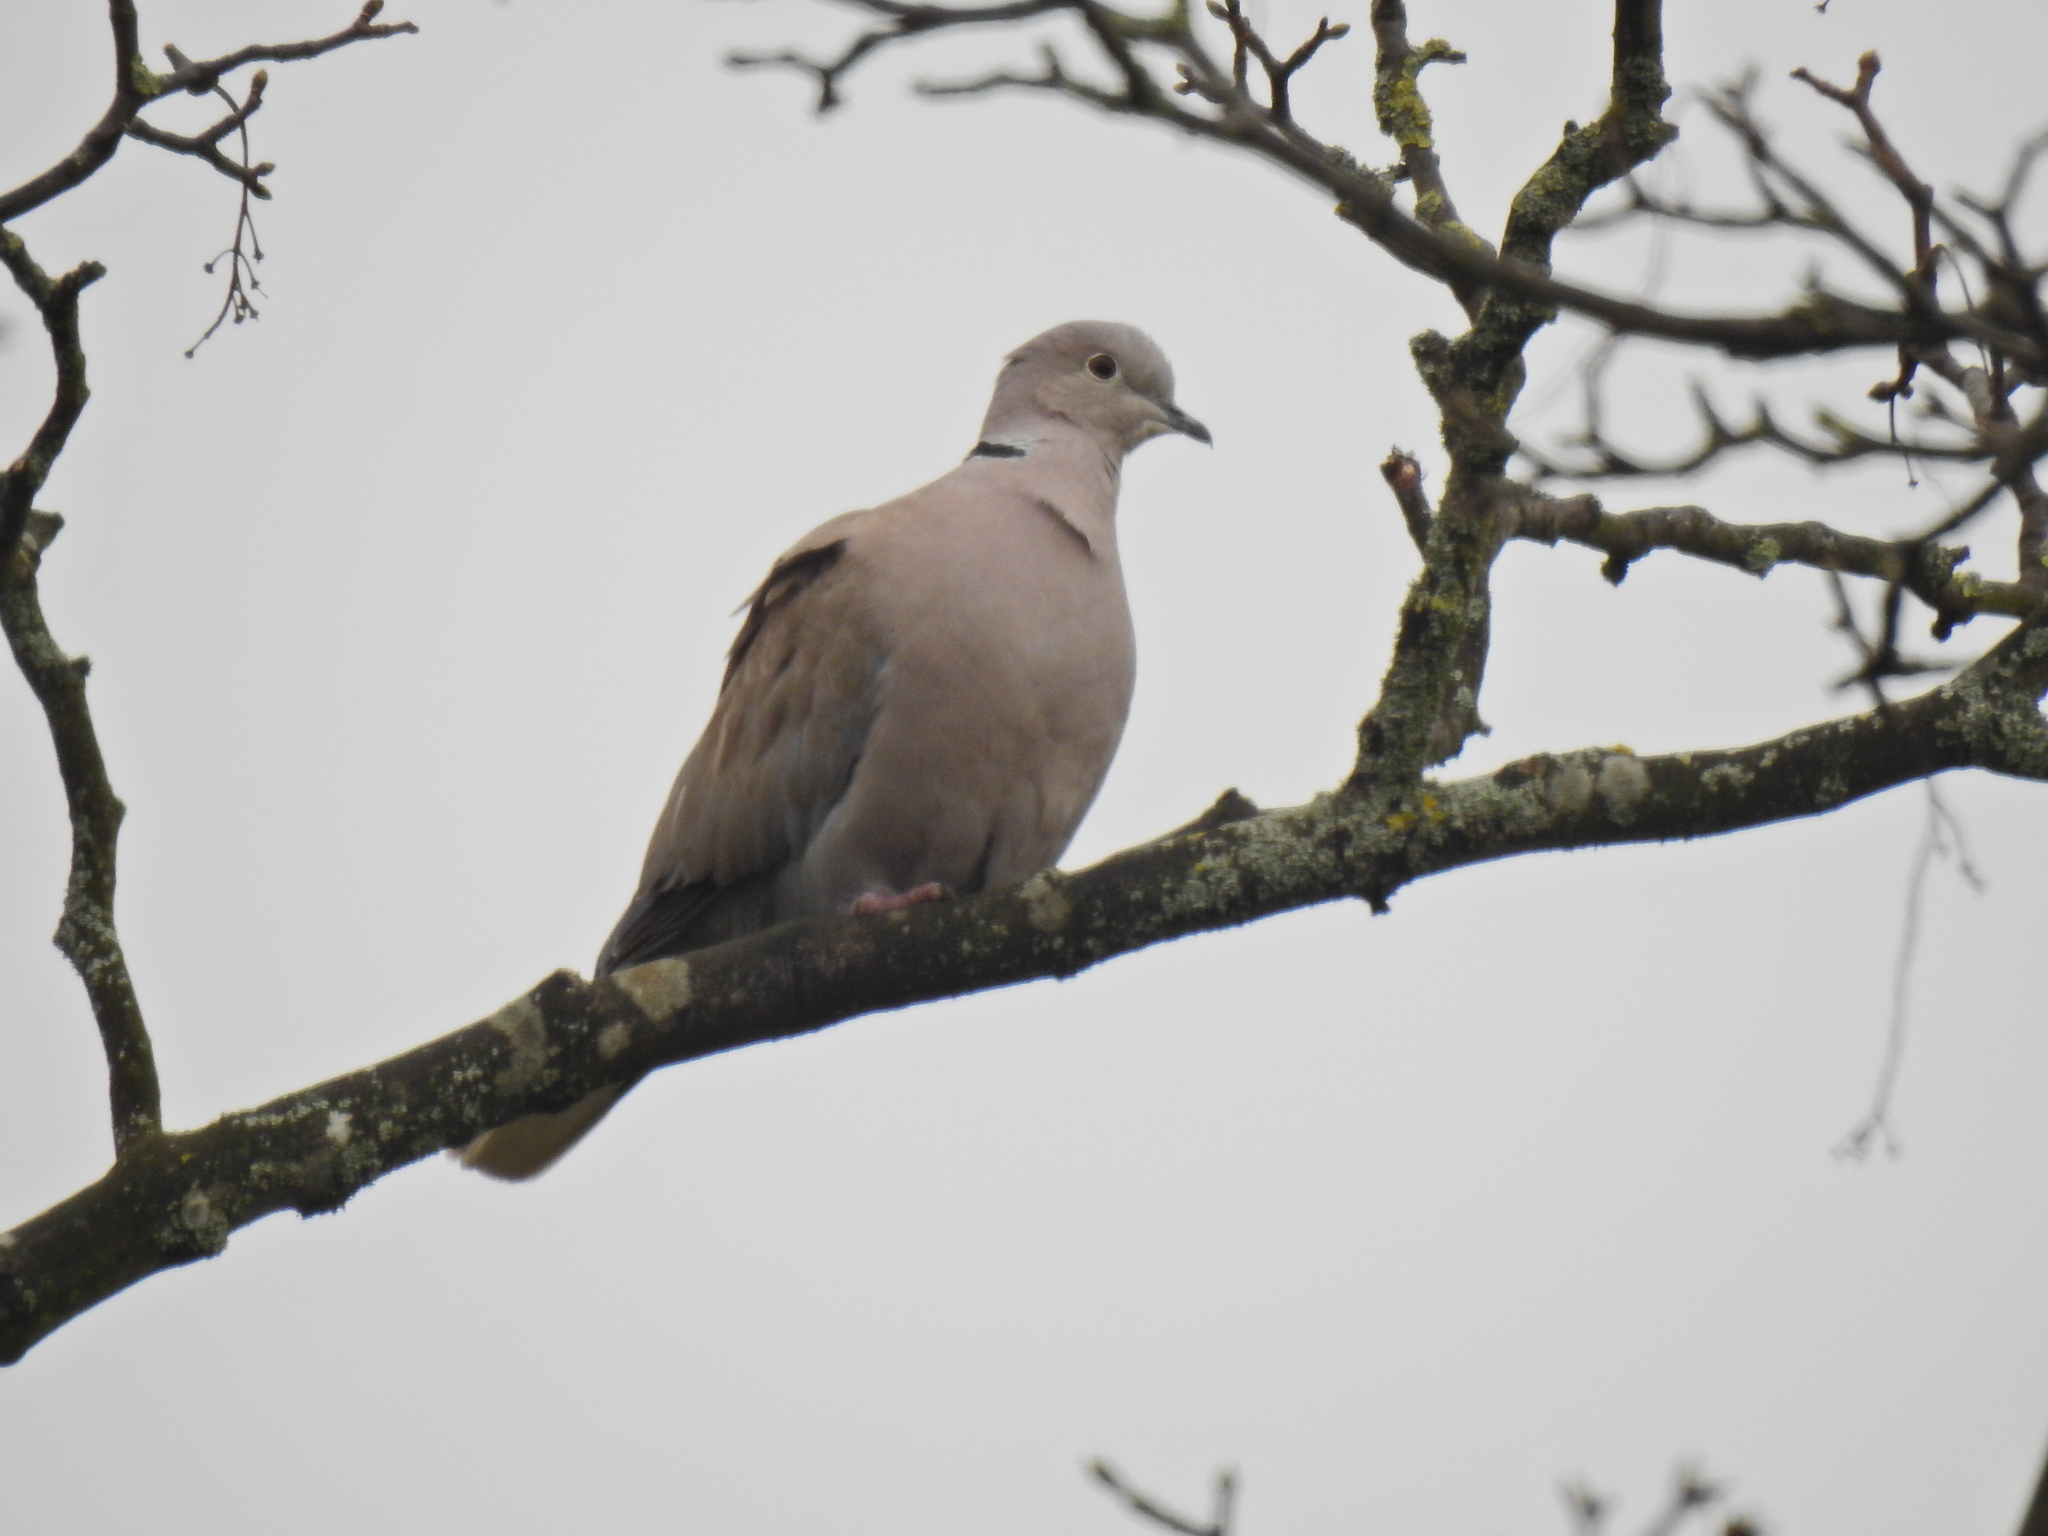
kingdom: Animalia
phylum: Chordata
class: Aves
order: Columbiformes
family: Columbidae
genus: Streptopelia
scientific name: Streptopelia decaocto
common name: Eurasian collared dove
